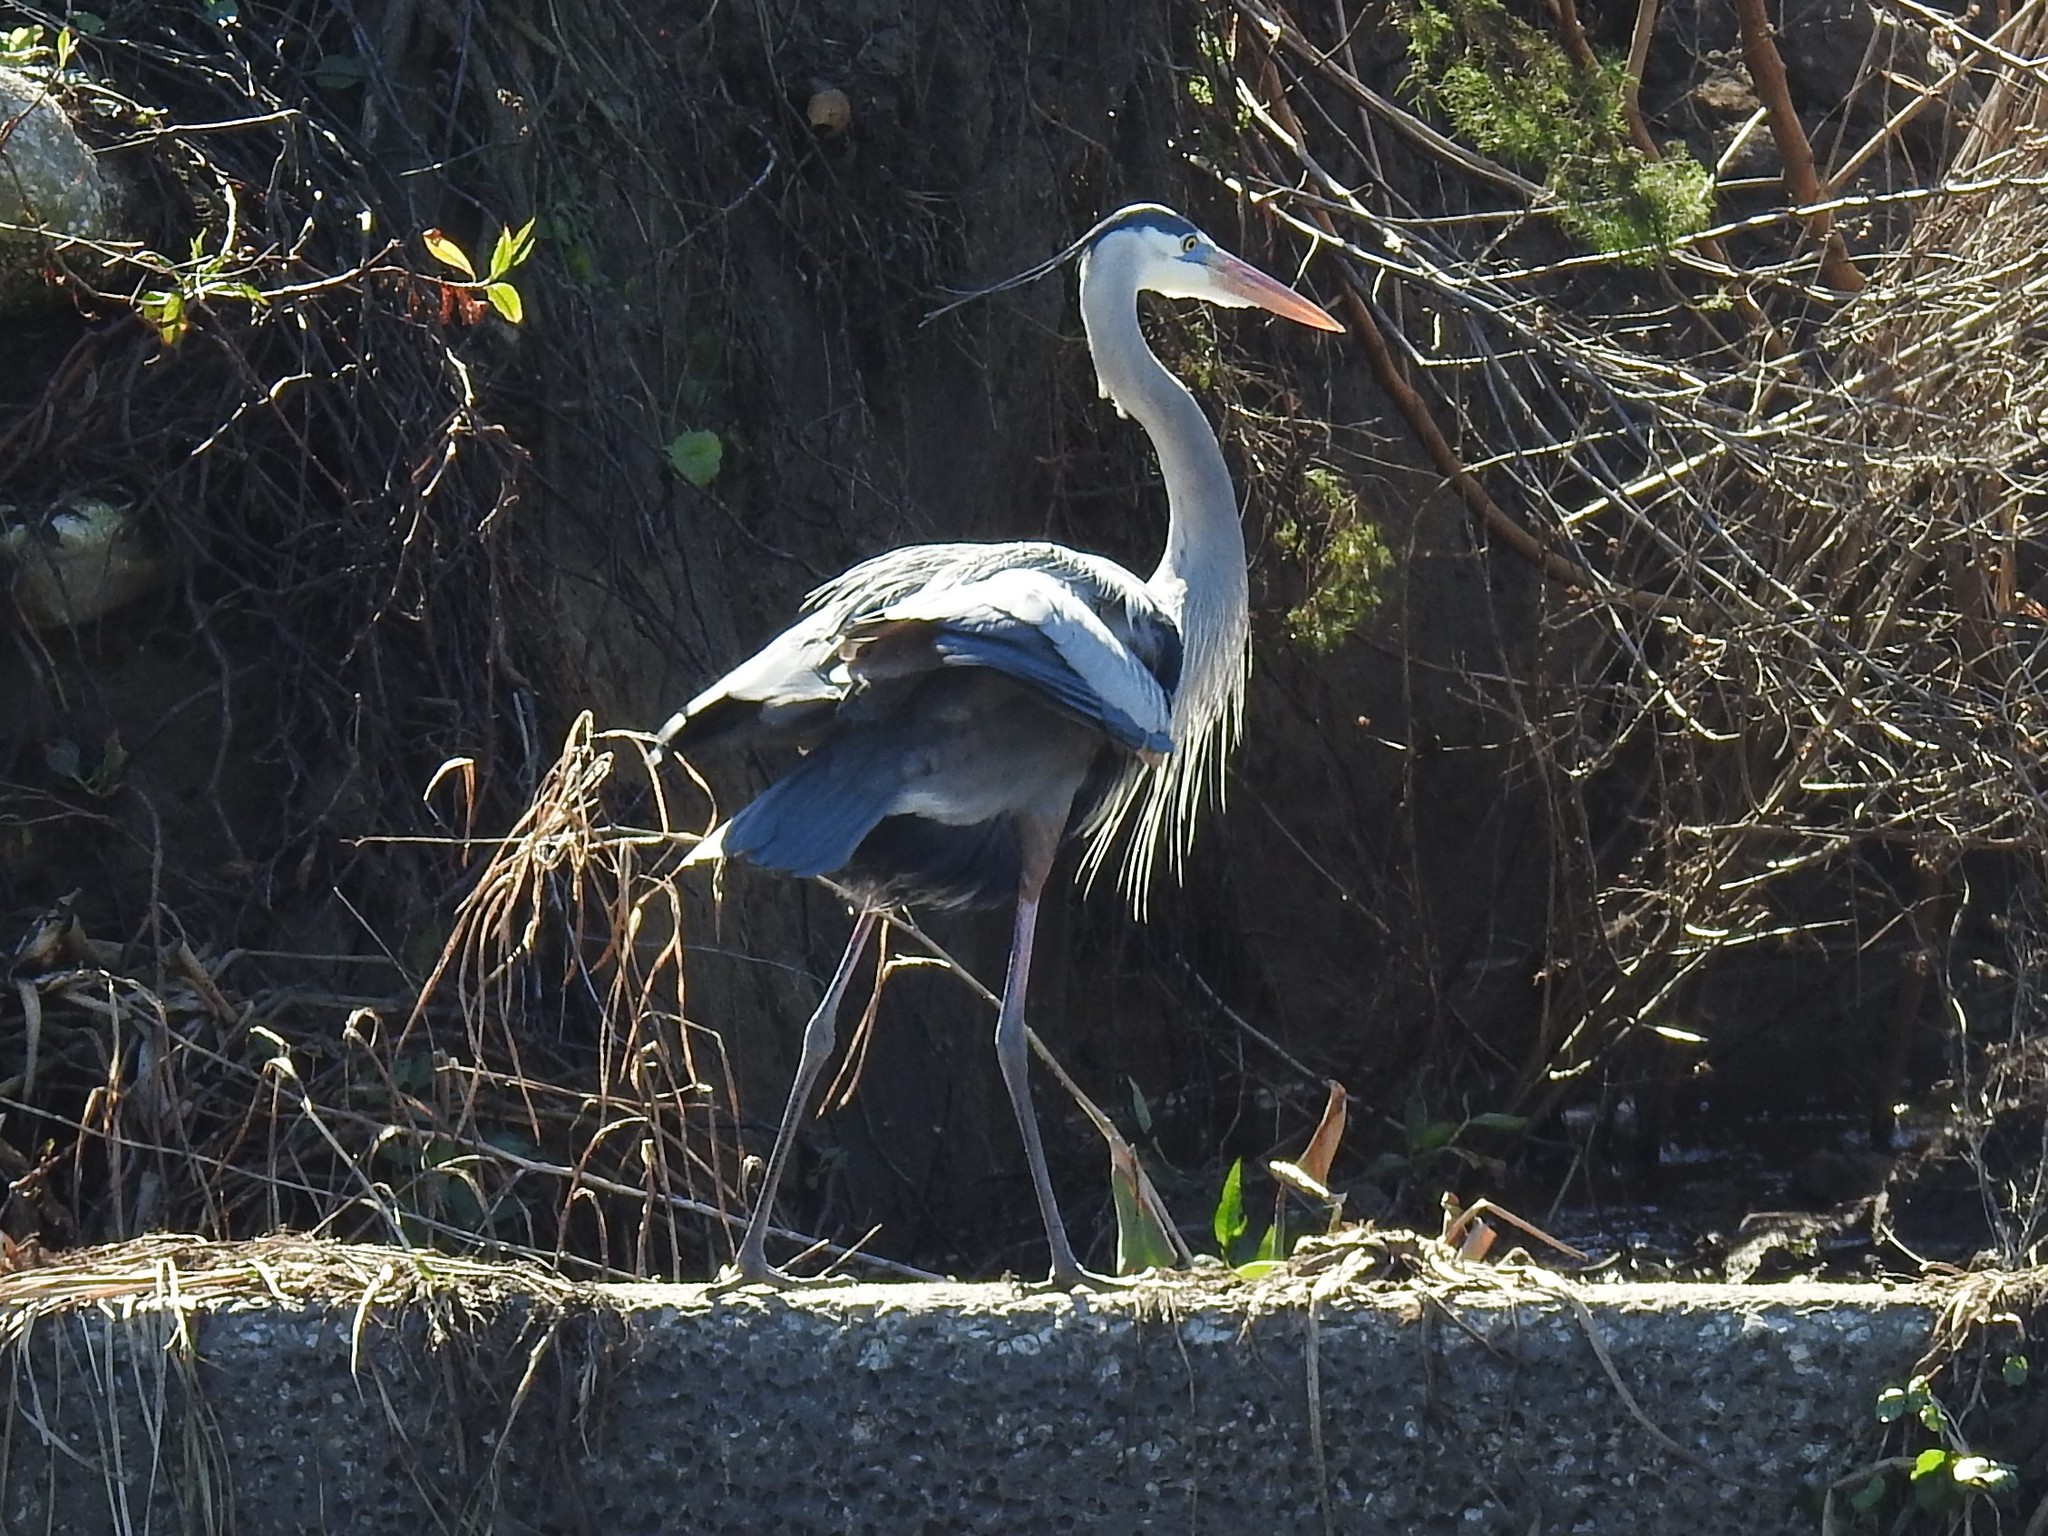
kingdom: Animalia
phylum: Chordata
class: Aves
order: Pelecaniformes
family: Ardeidae
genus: Ardea
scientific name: Ardea herodias
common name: Great blue heron
